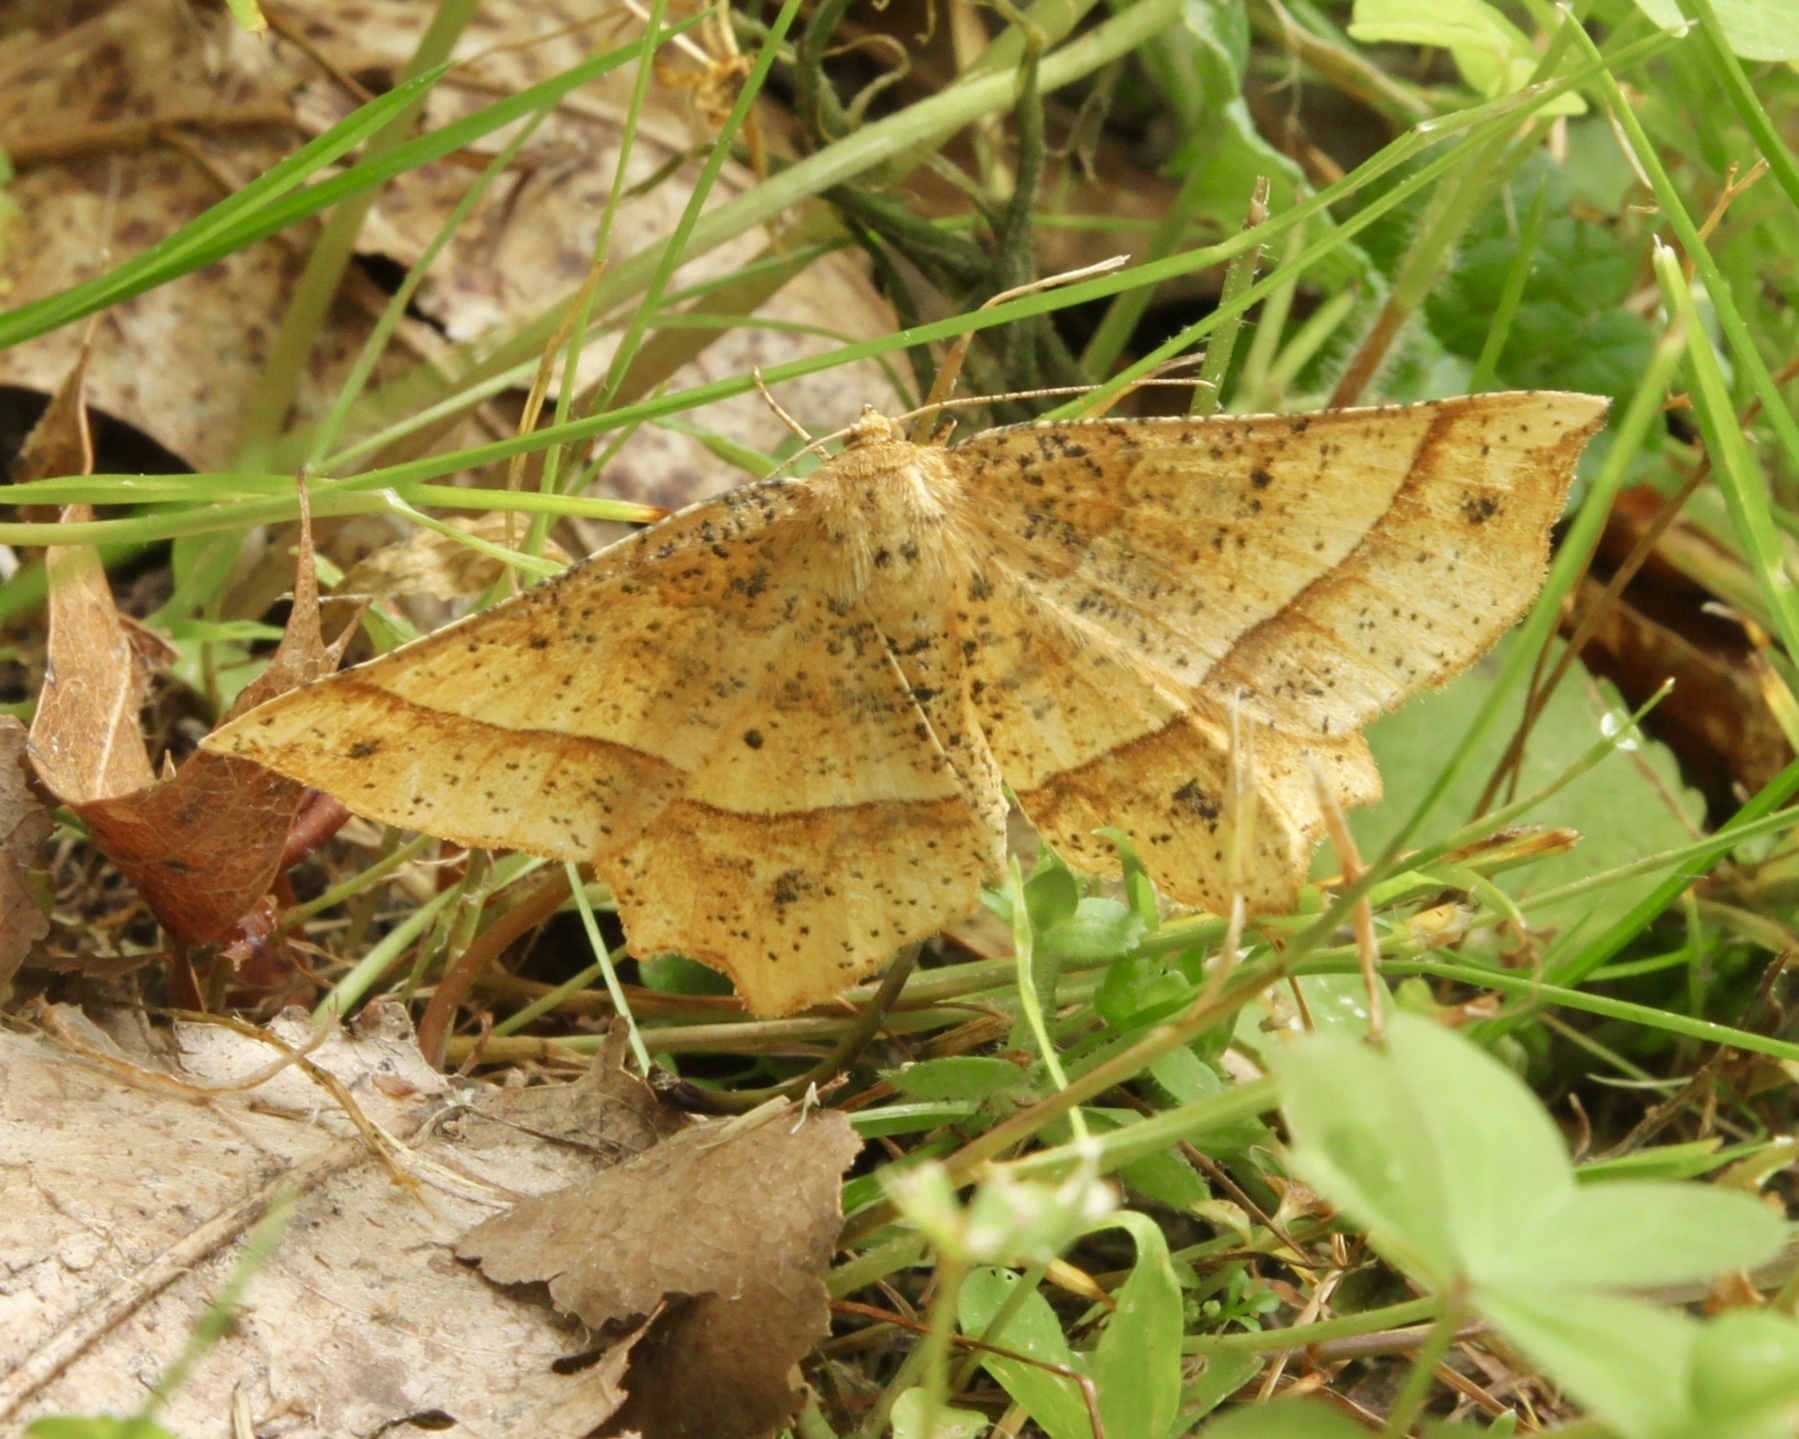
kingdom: Animalia
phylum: Arthropoda
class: Insecta
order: Lepidoptera
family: Geometridae
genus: Euchlaena
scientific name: Euchlaena tigrinaria
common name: Mottled euchlaena moth
